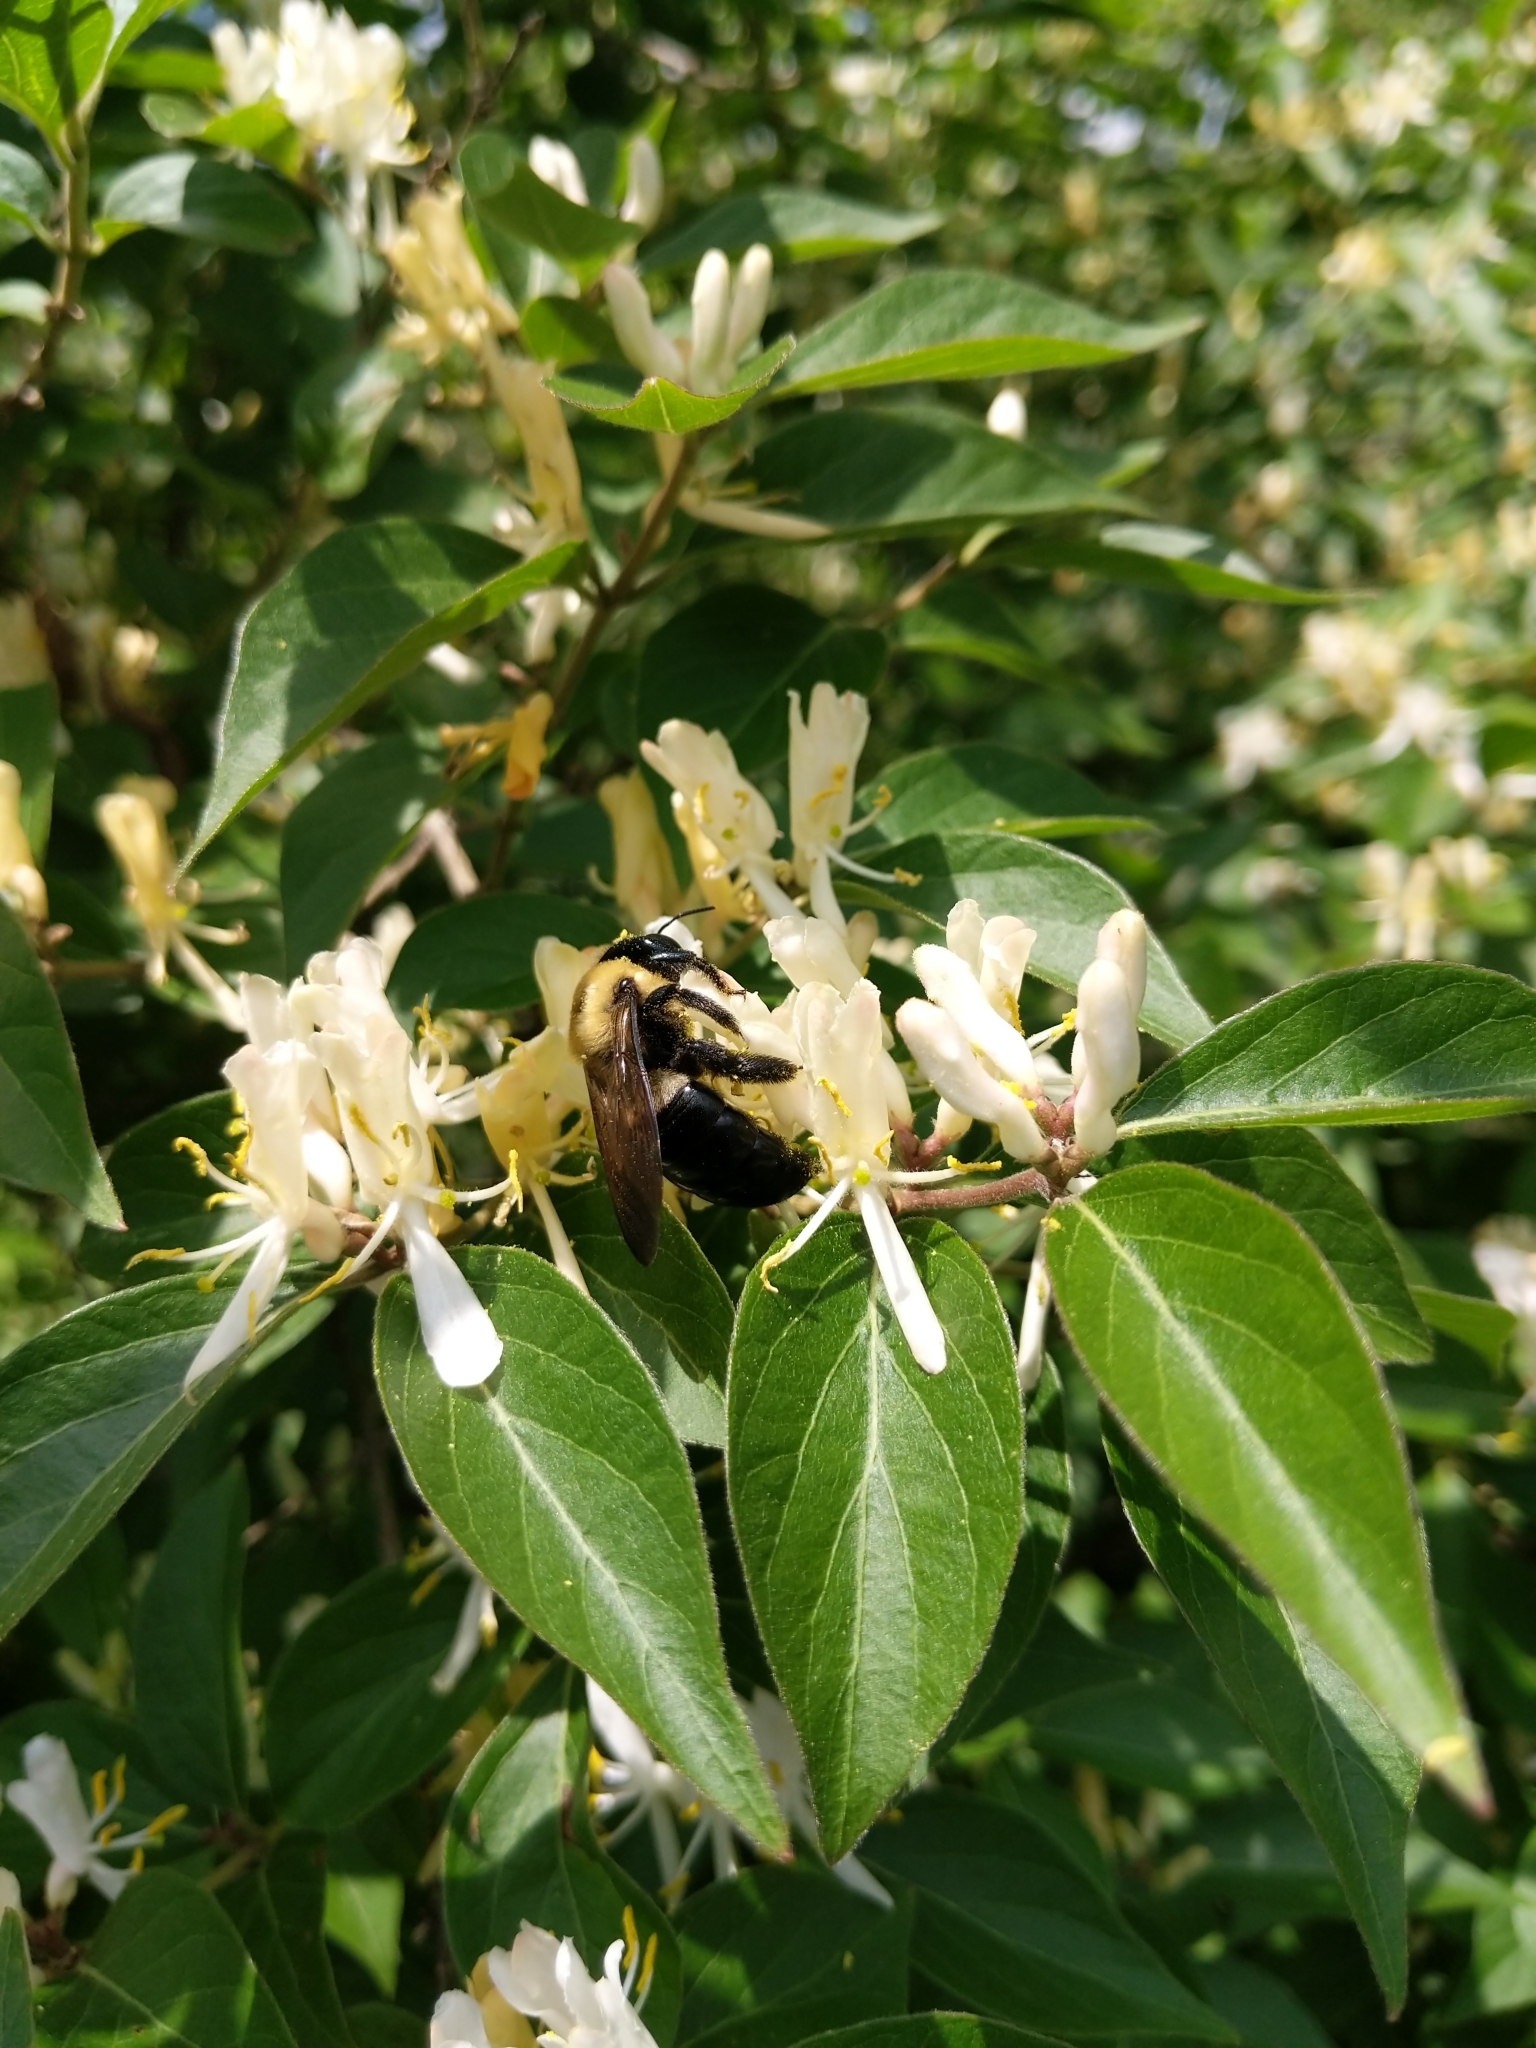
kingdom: Animalia
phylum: Arthropoda
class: Insecta
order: Hymenoptera
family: Apidae
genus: Xylocopa
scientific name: Xylocopa virginica
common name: Carpenter bee
